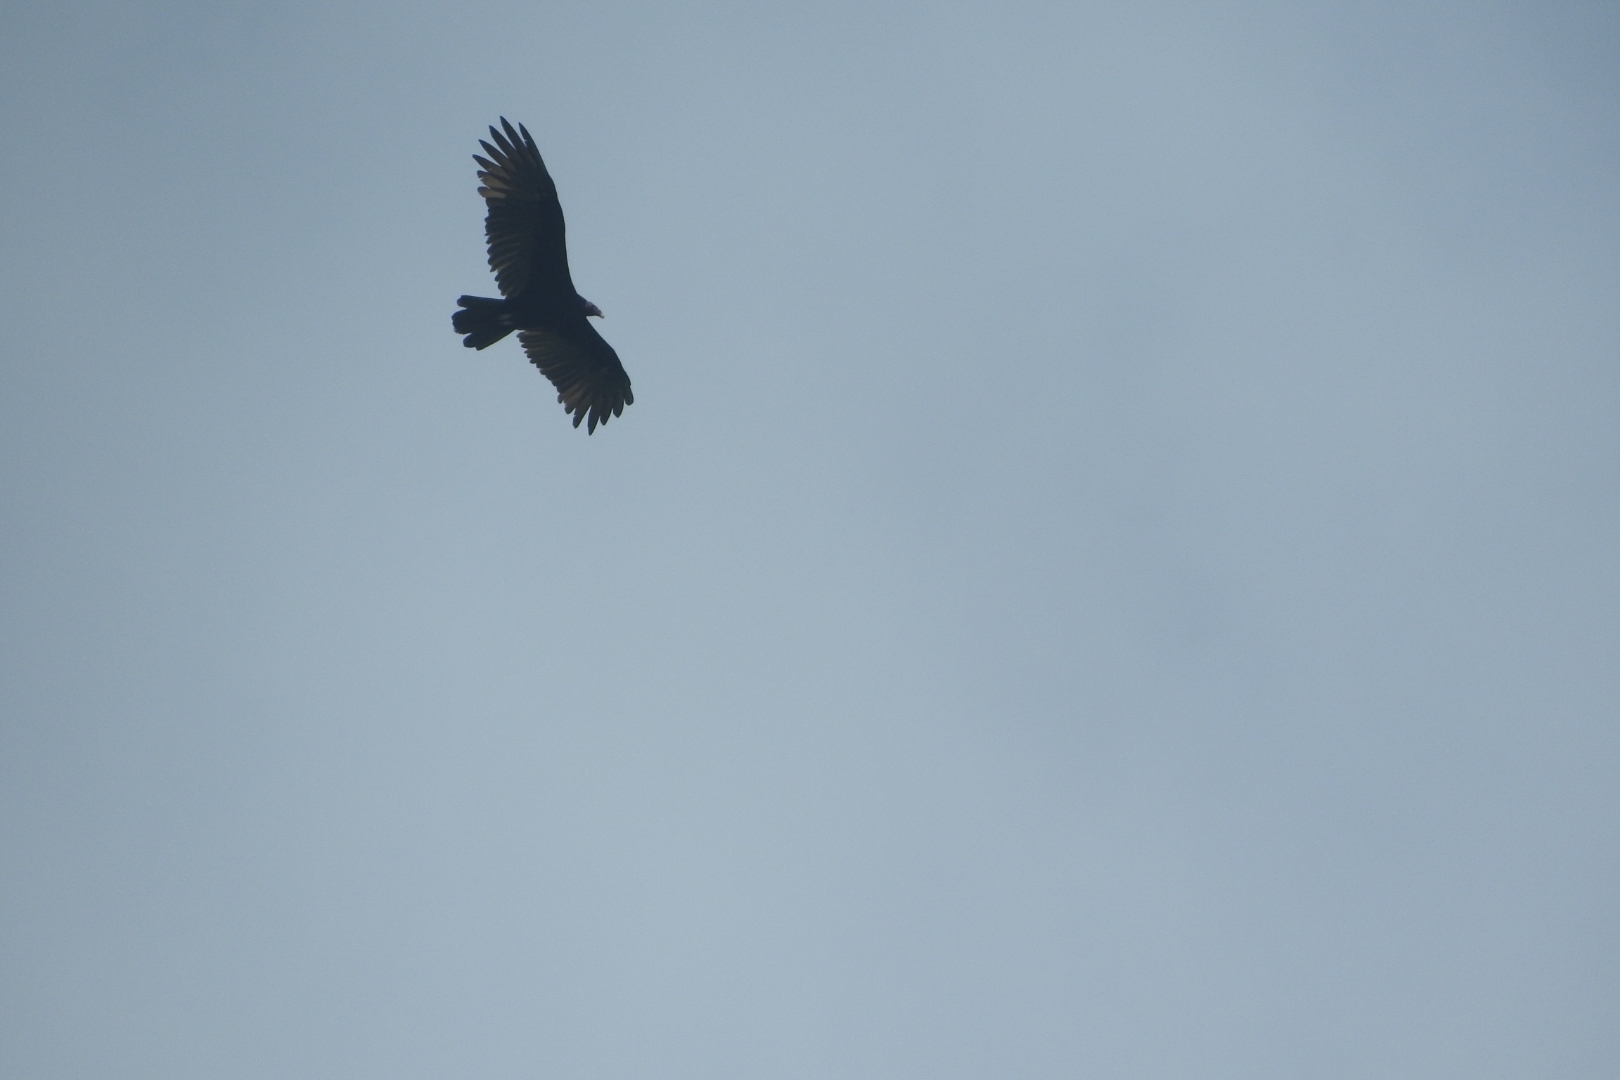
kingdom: Animalia
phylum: Chordata
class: Aves
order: Accipitriformes
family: Cathartidae
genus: Cathartes
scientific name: Cathartes aura
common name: Turkey vulture
